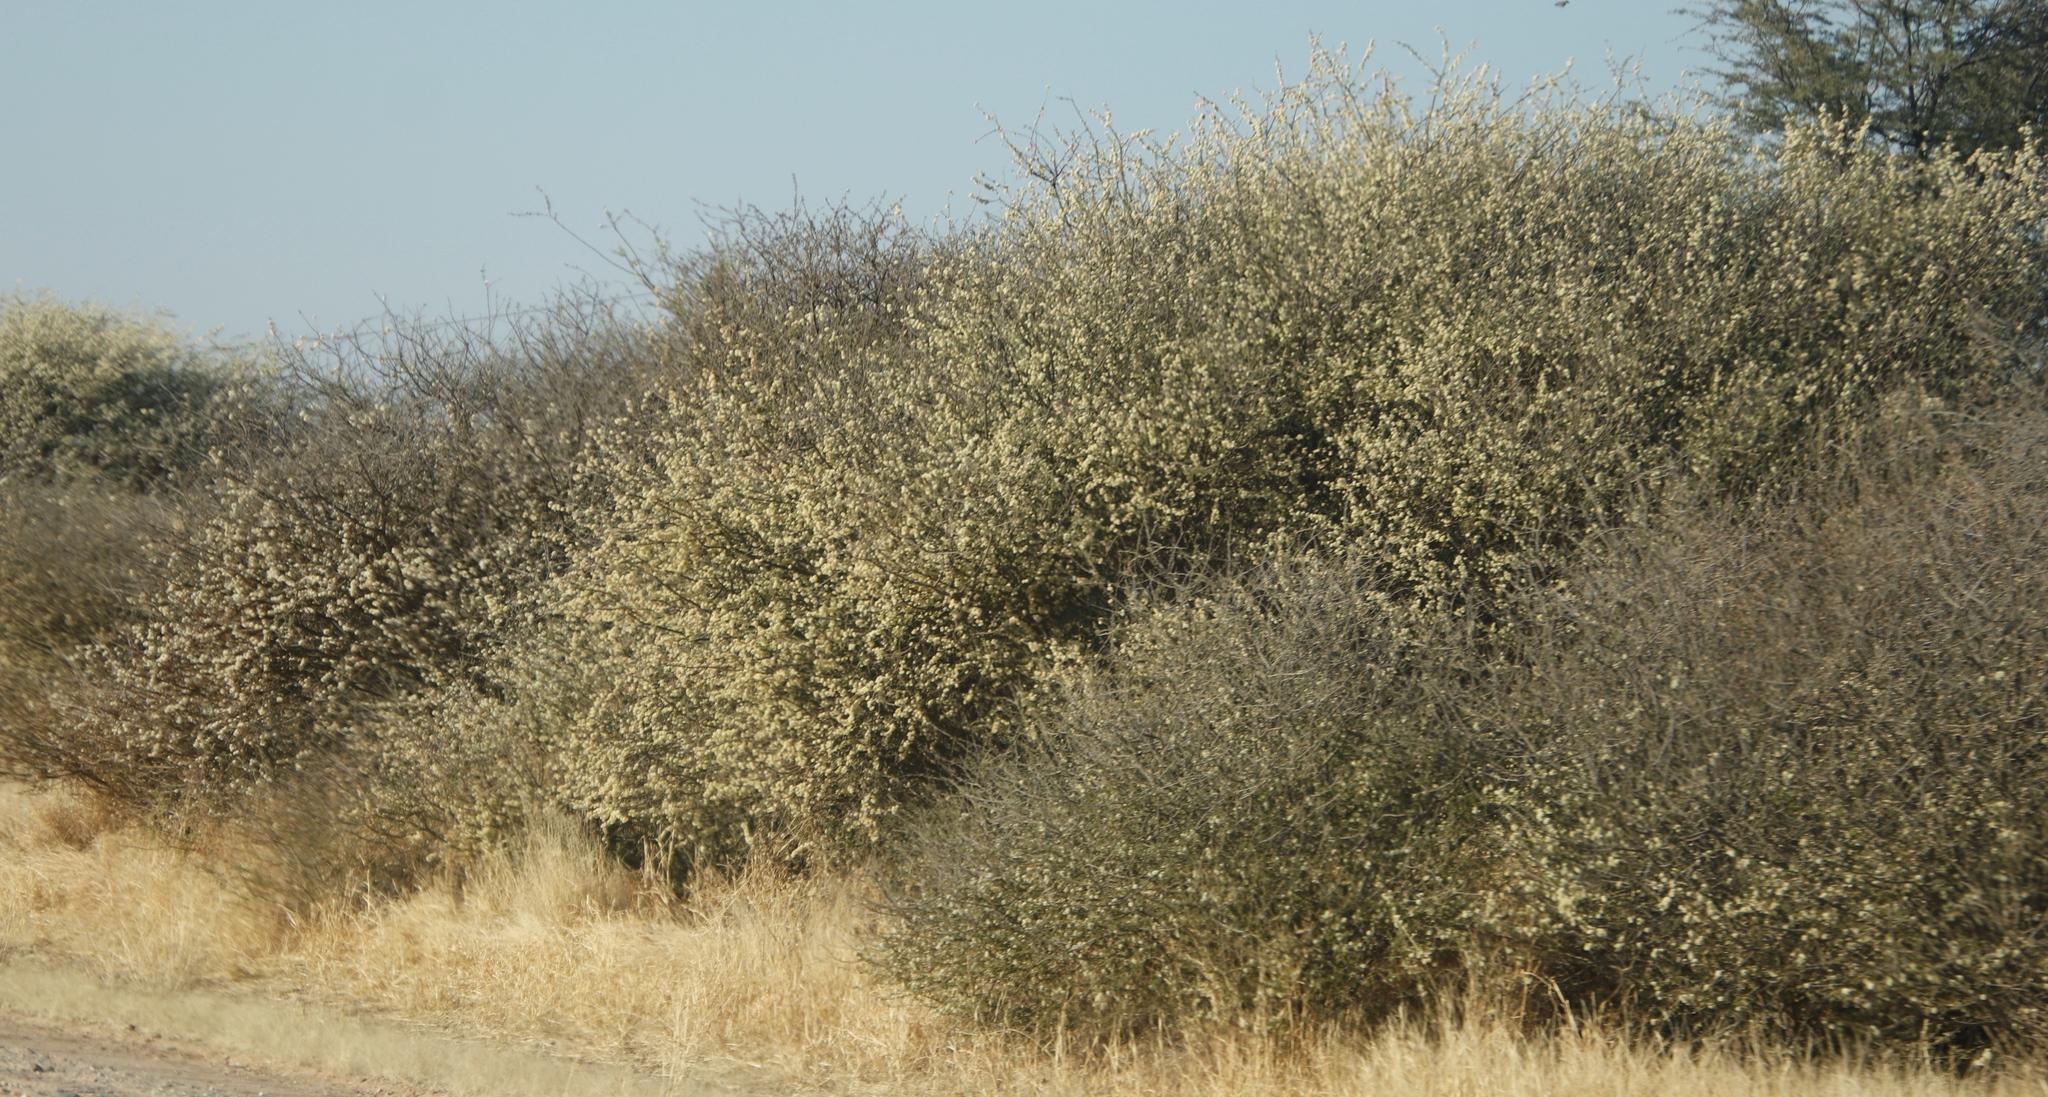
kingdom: Plantae
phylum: Tracheophyta
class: Magnoliopsida
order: Fabales
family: Fabaceae
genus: Senegalia
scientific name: Senegalia mellifera
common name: Hookthorn
